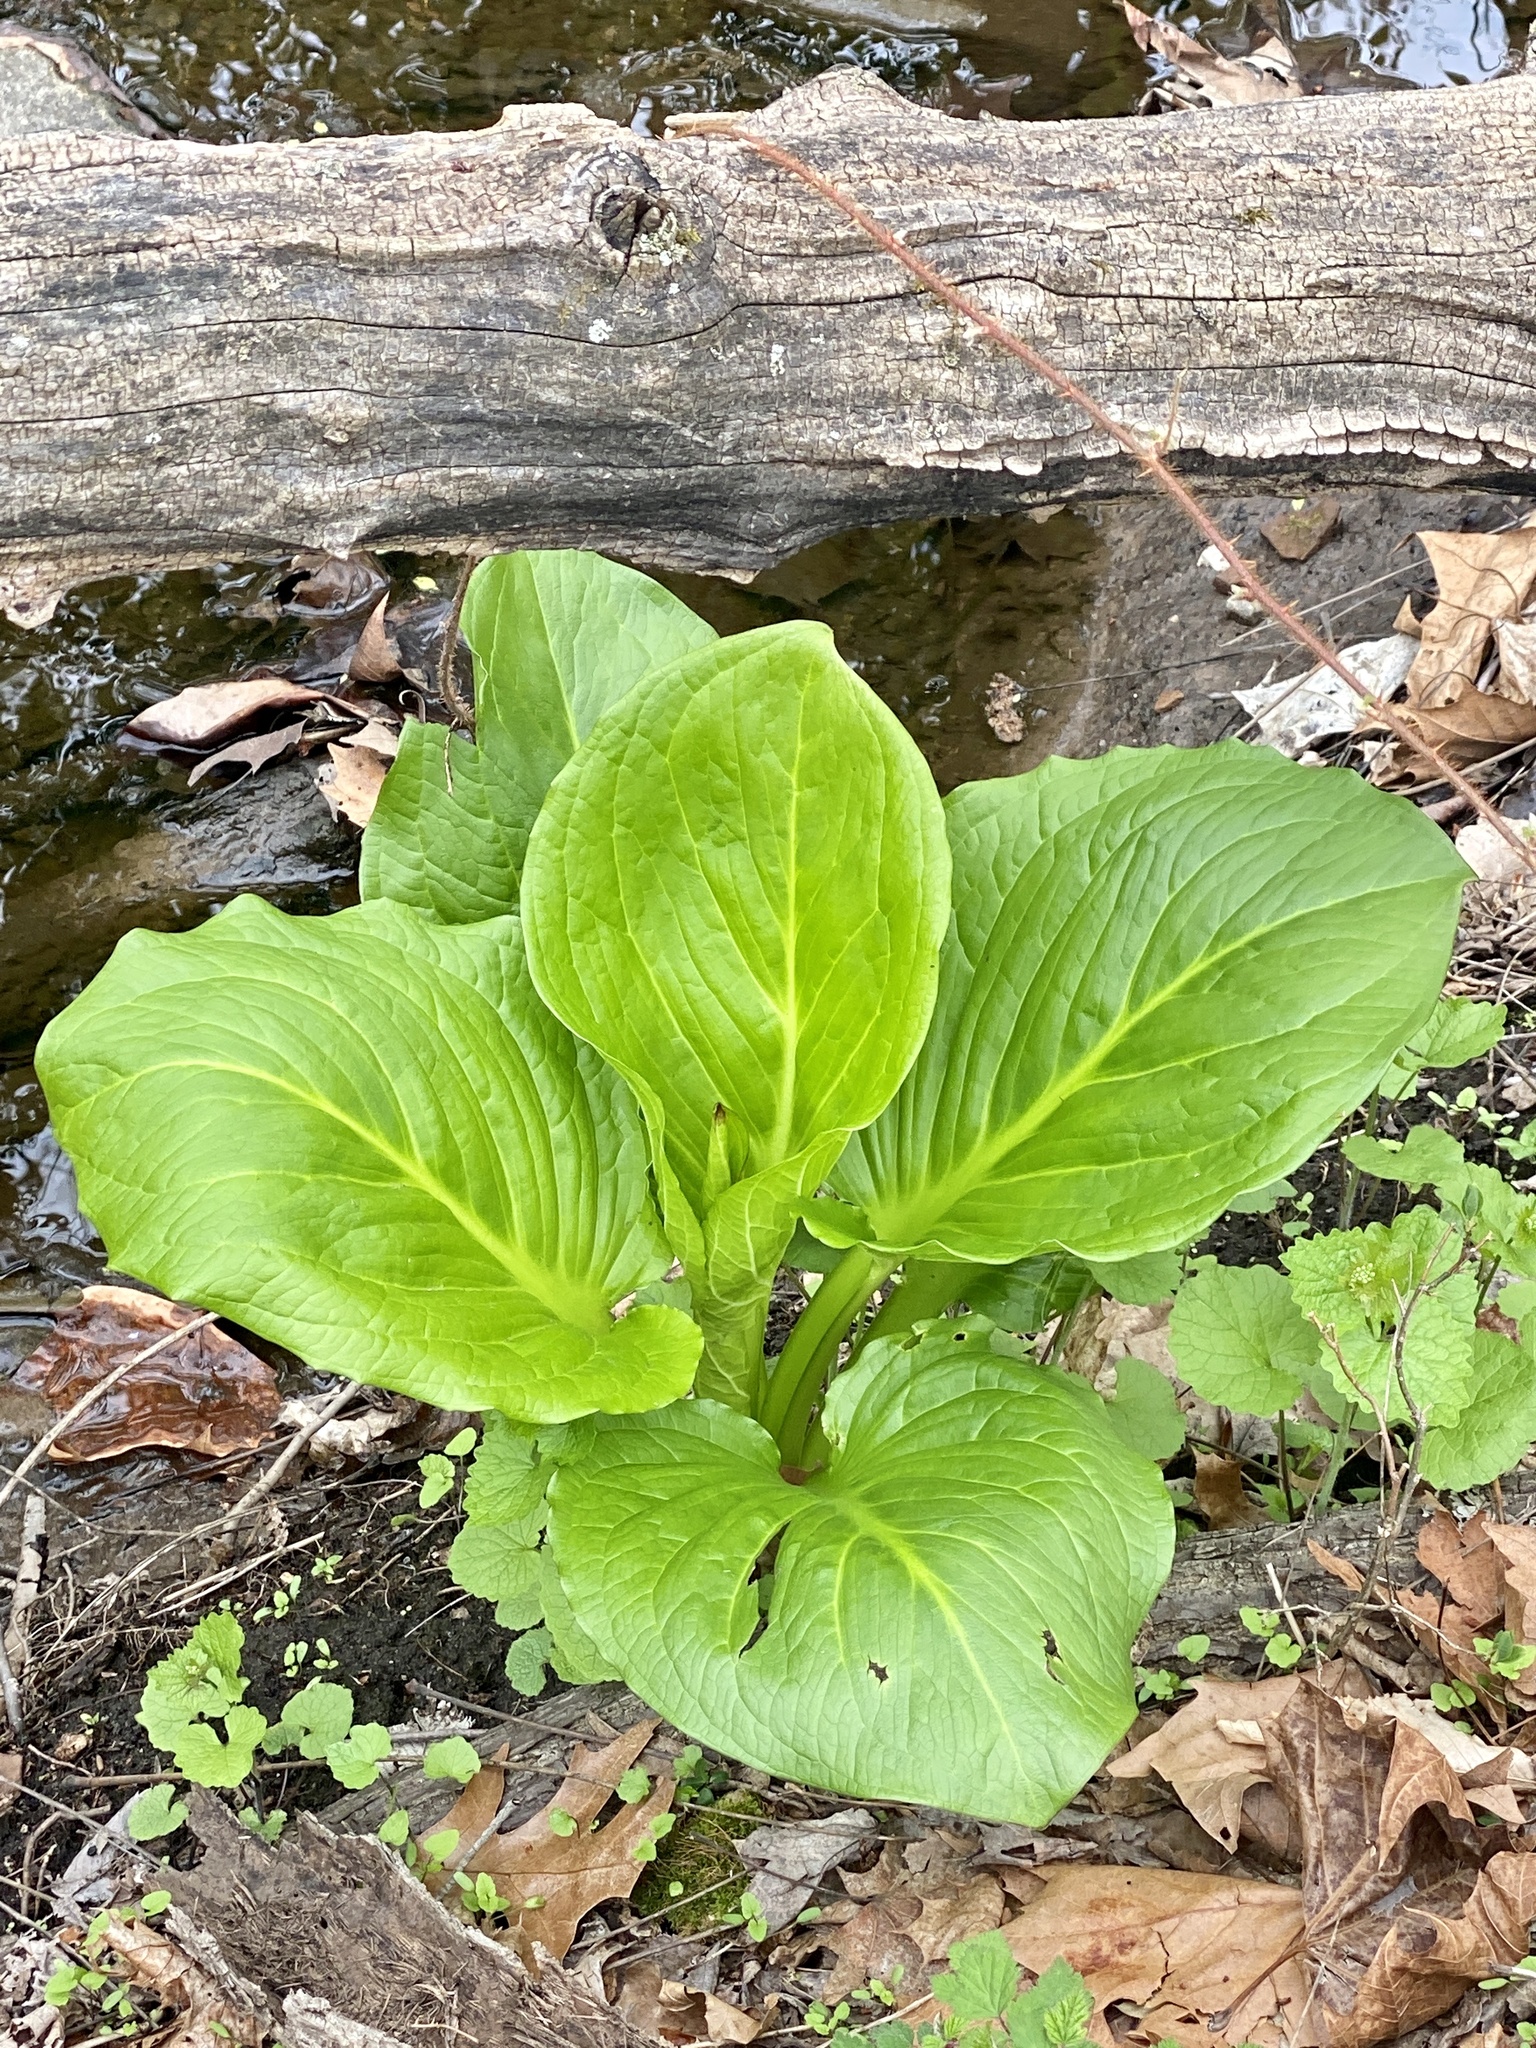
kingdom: Plantae
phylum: Tracheophyta
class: Liliopsida
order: Alismatales
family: Araceae
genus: Symplocarpus
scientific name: Symplocarpus foetidus
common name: Eastern skunk cabbage
